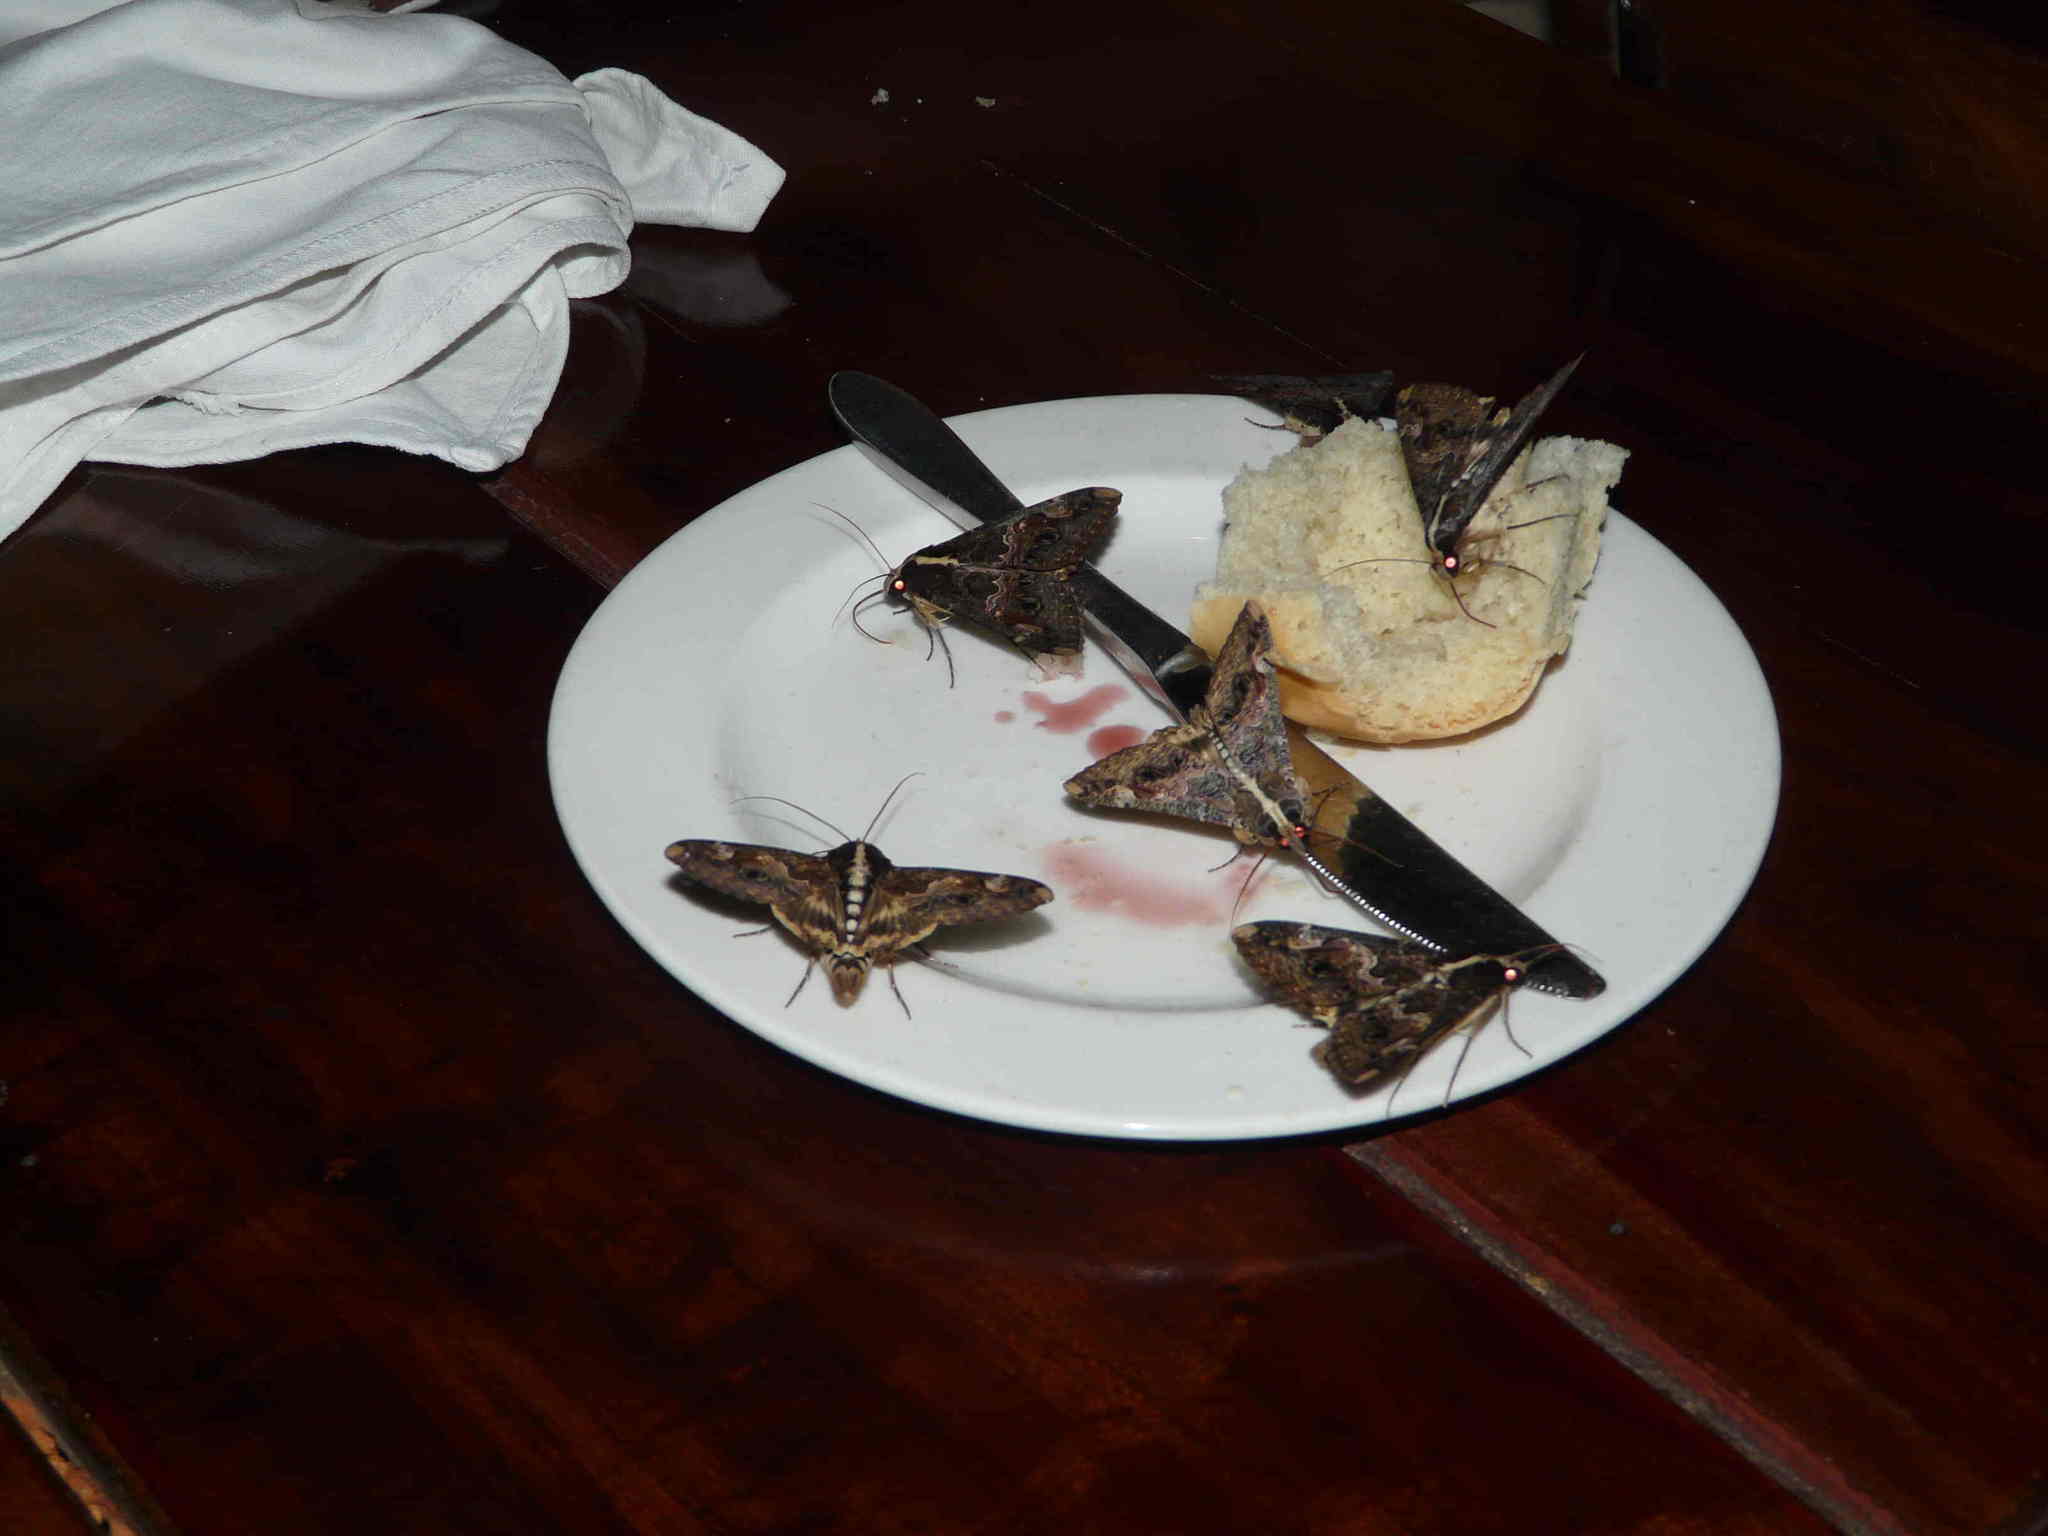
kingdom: Animalia
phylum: Arthropoda
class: Insecta
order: Lepidoptera
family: Erebidae
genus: Sphingomorpha
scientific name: Sphingomorpha chlorea
